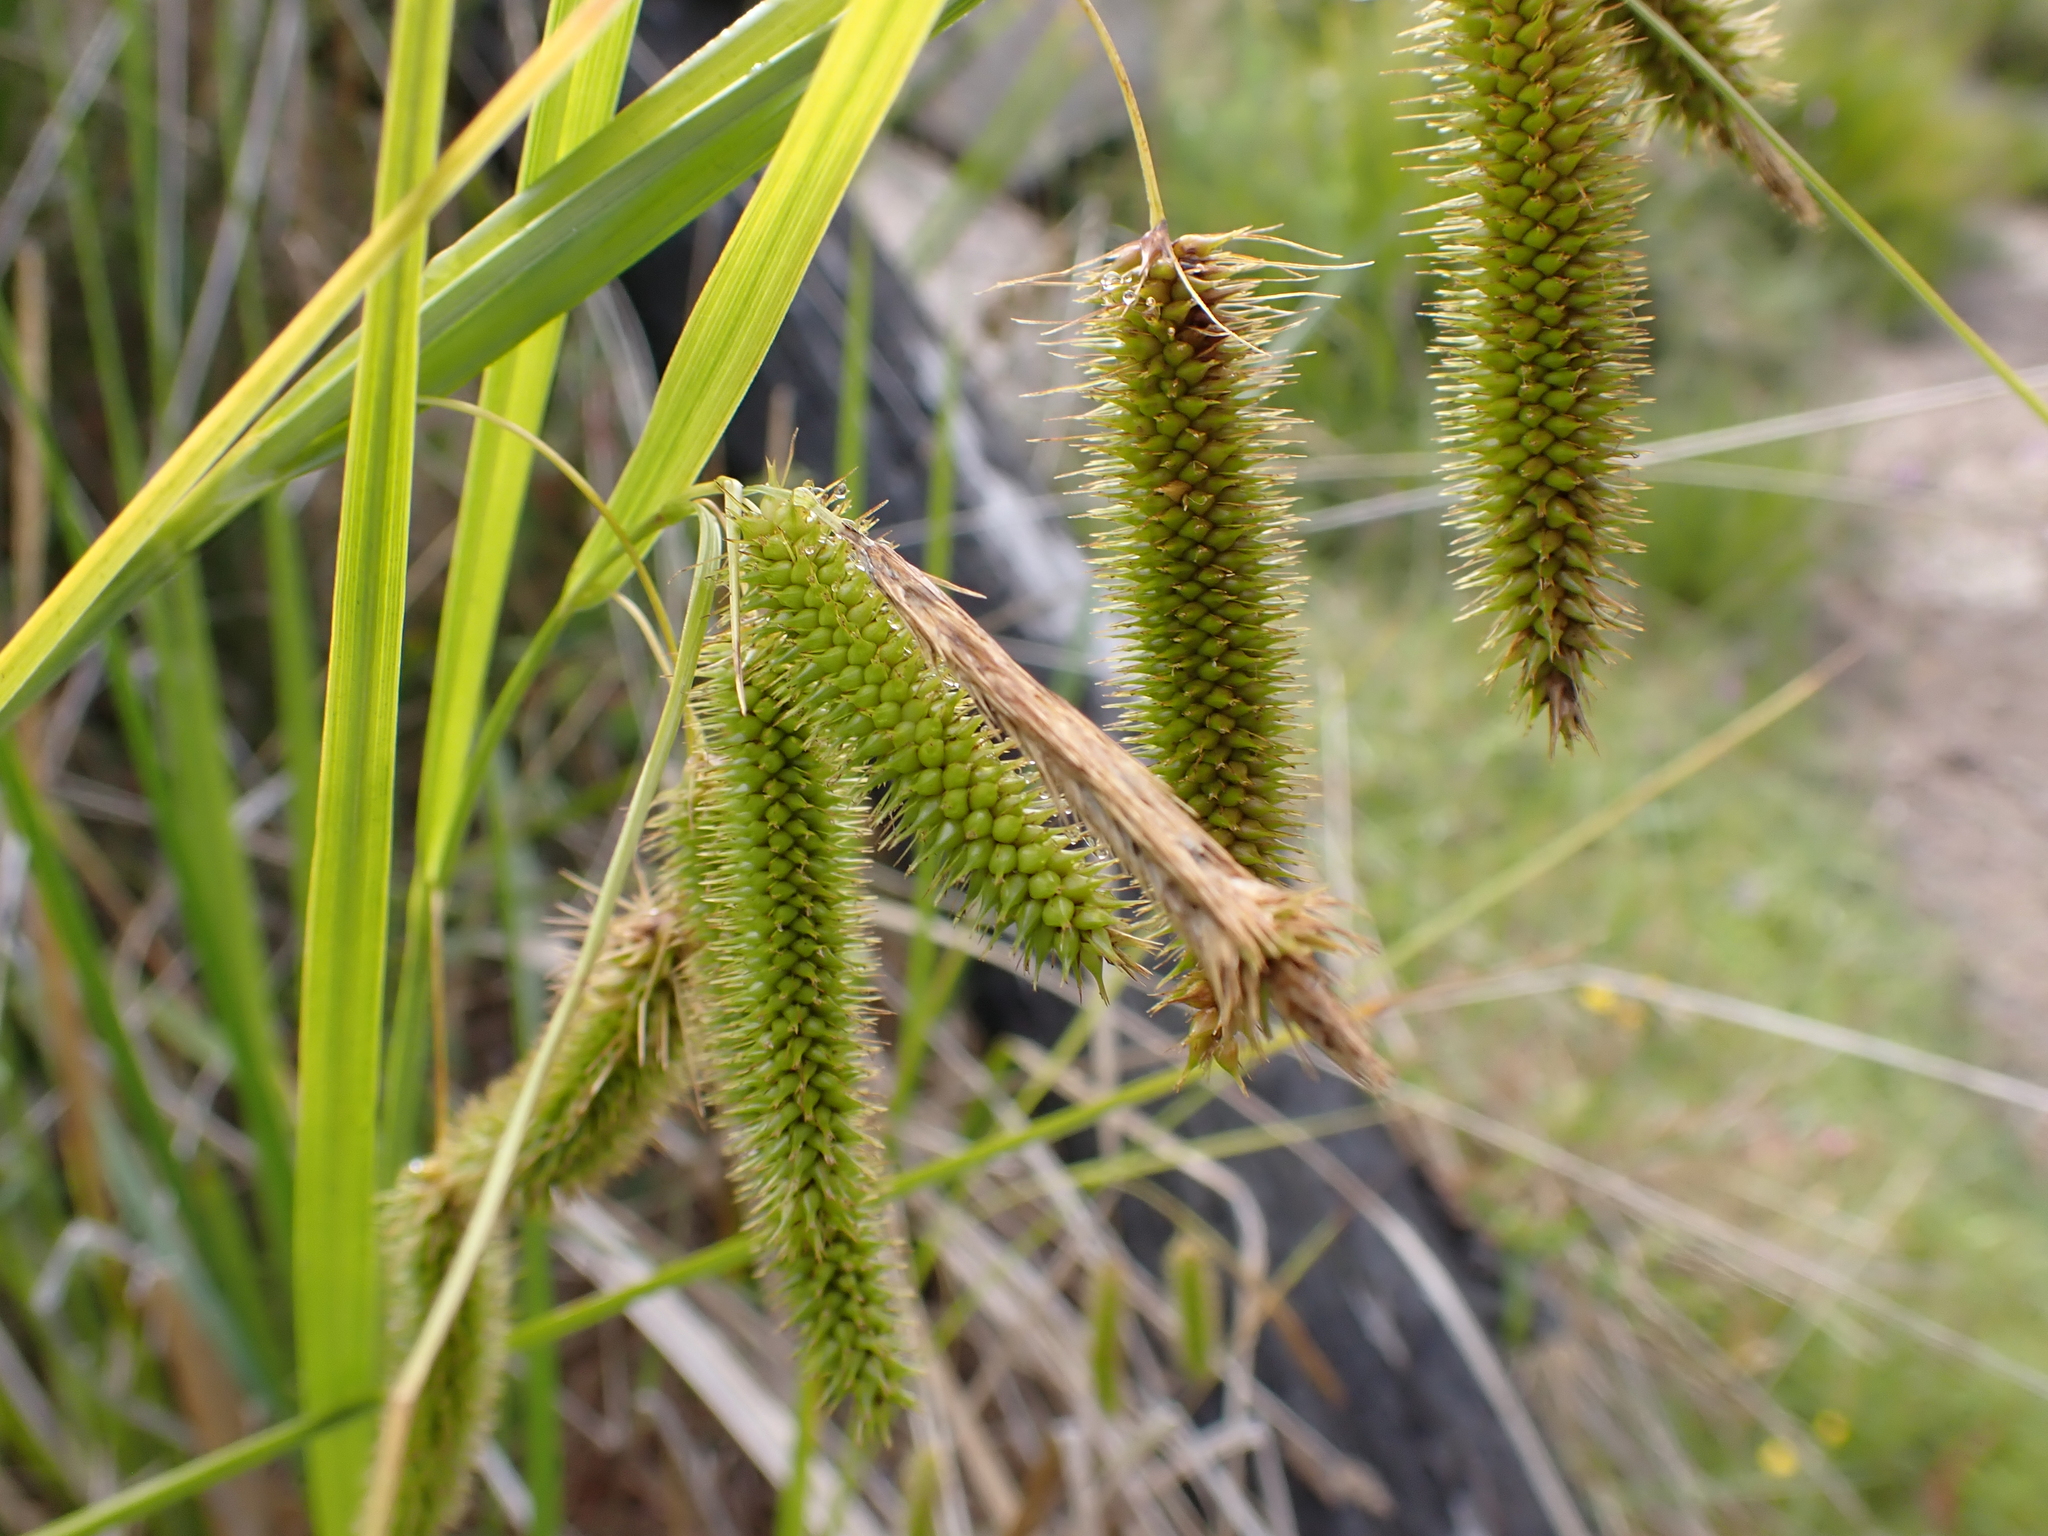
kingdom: Plantae
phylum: Tracheophyta
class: Liliopsida
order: Poales
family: Cyperaceae
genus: Carex
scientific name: Carex fascicularis
